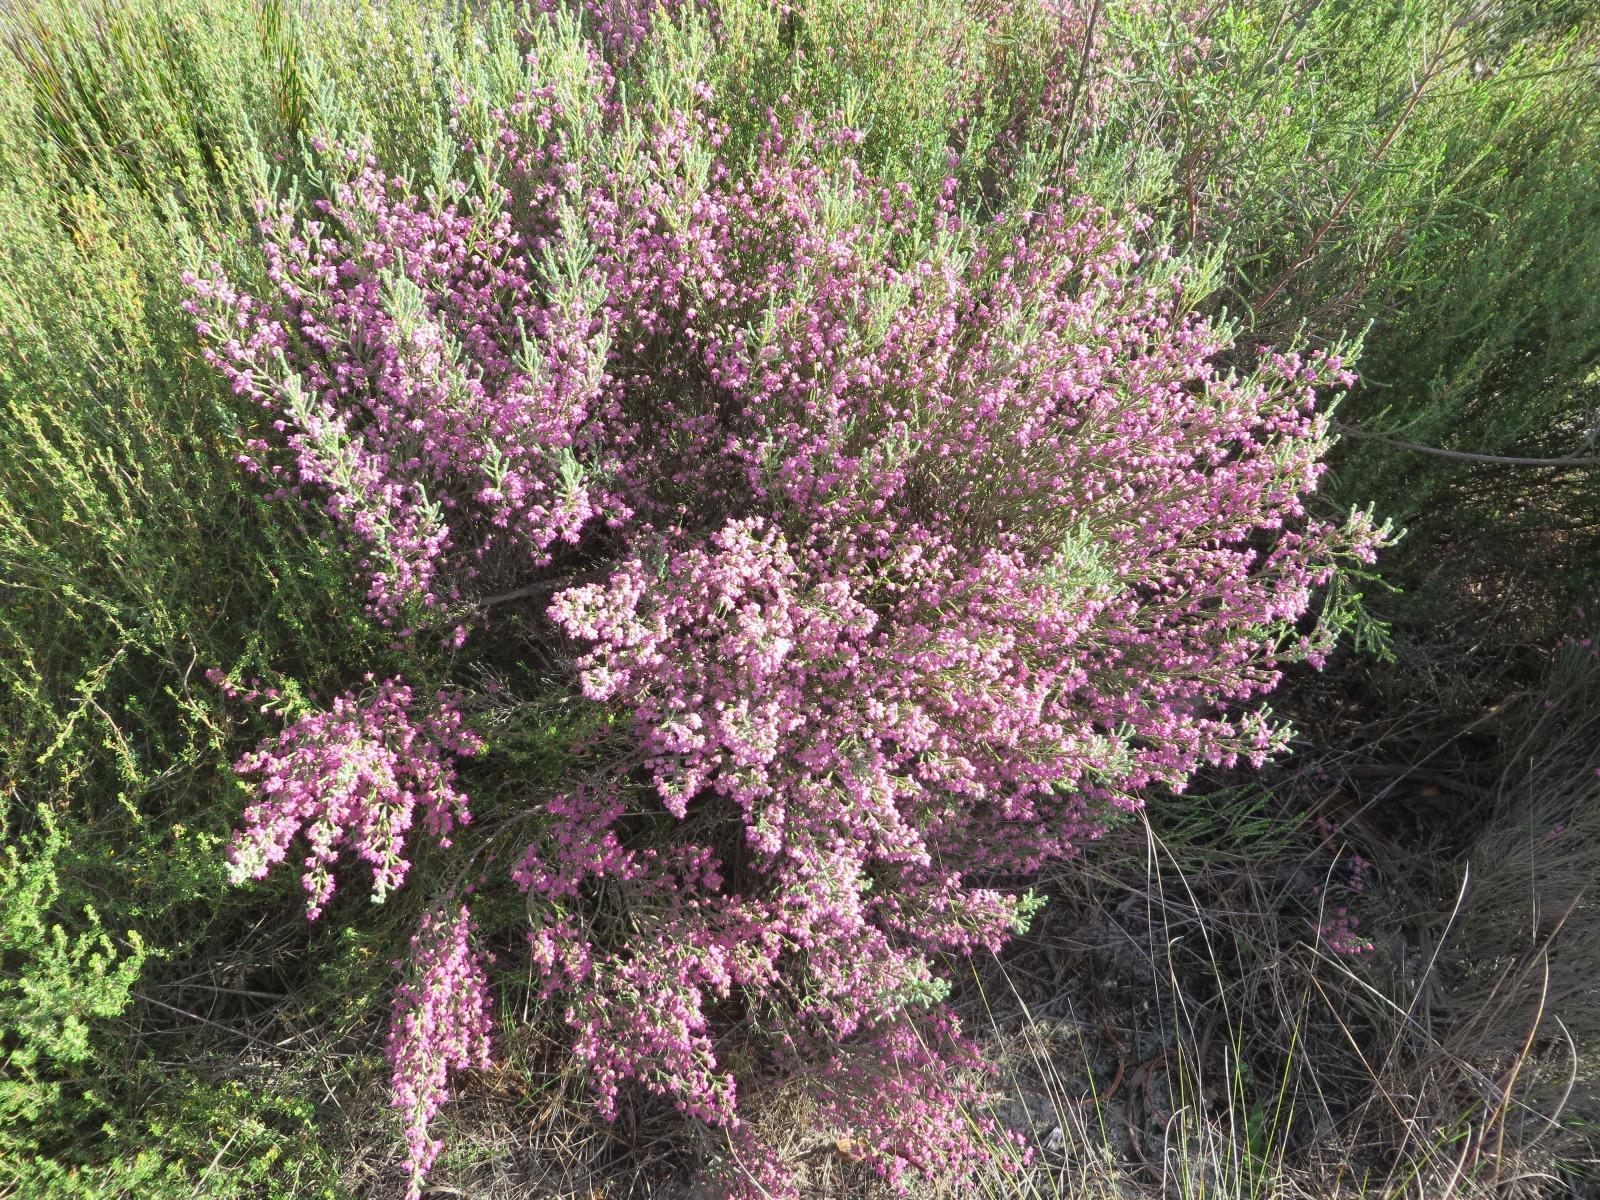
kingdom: Plantae
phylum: Tracheophyta
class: Magnoliopsida
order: Ericales
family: Ericaceae
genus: Erica
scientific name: Erica plumosa
